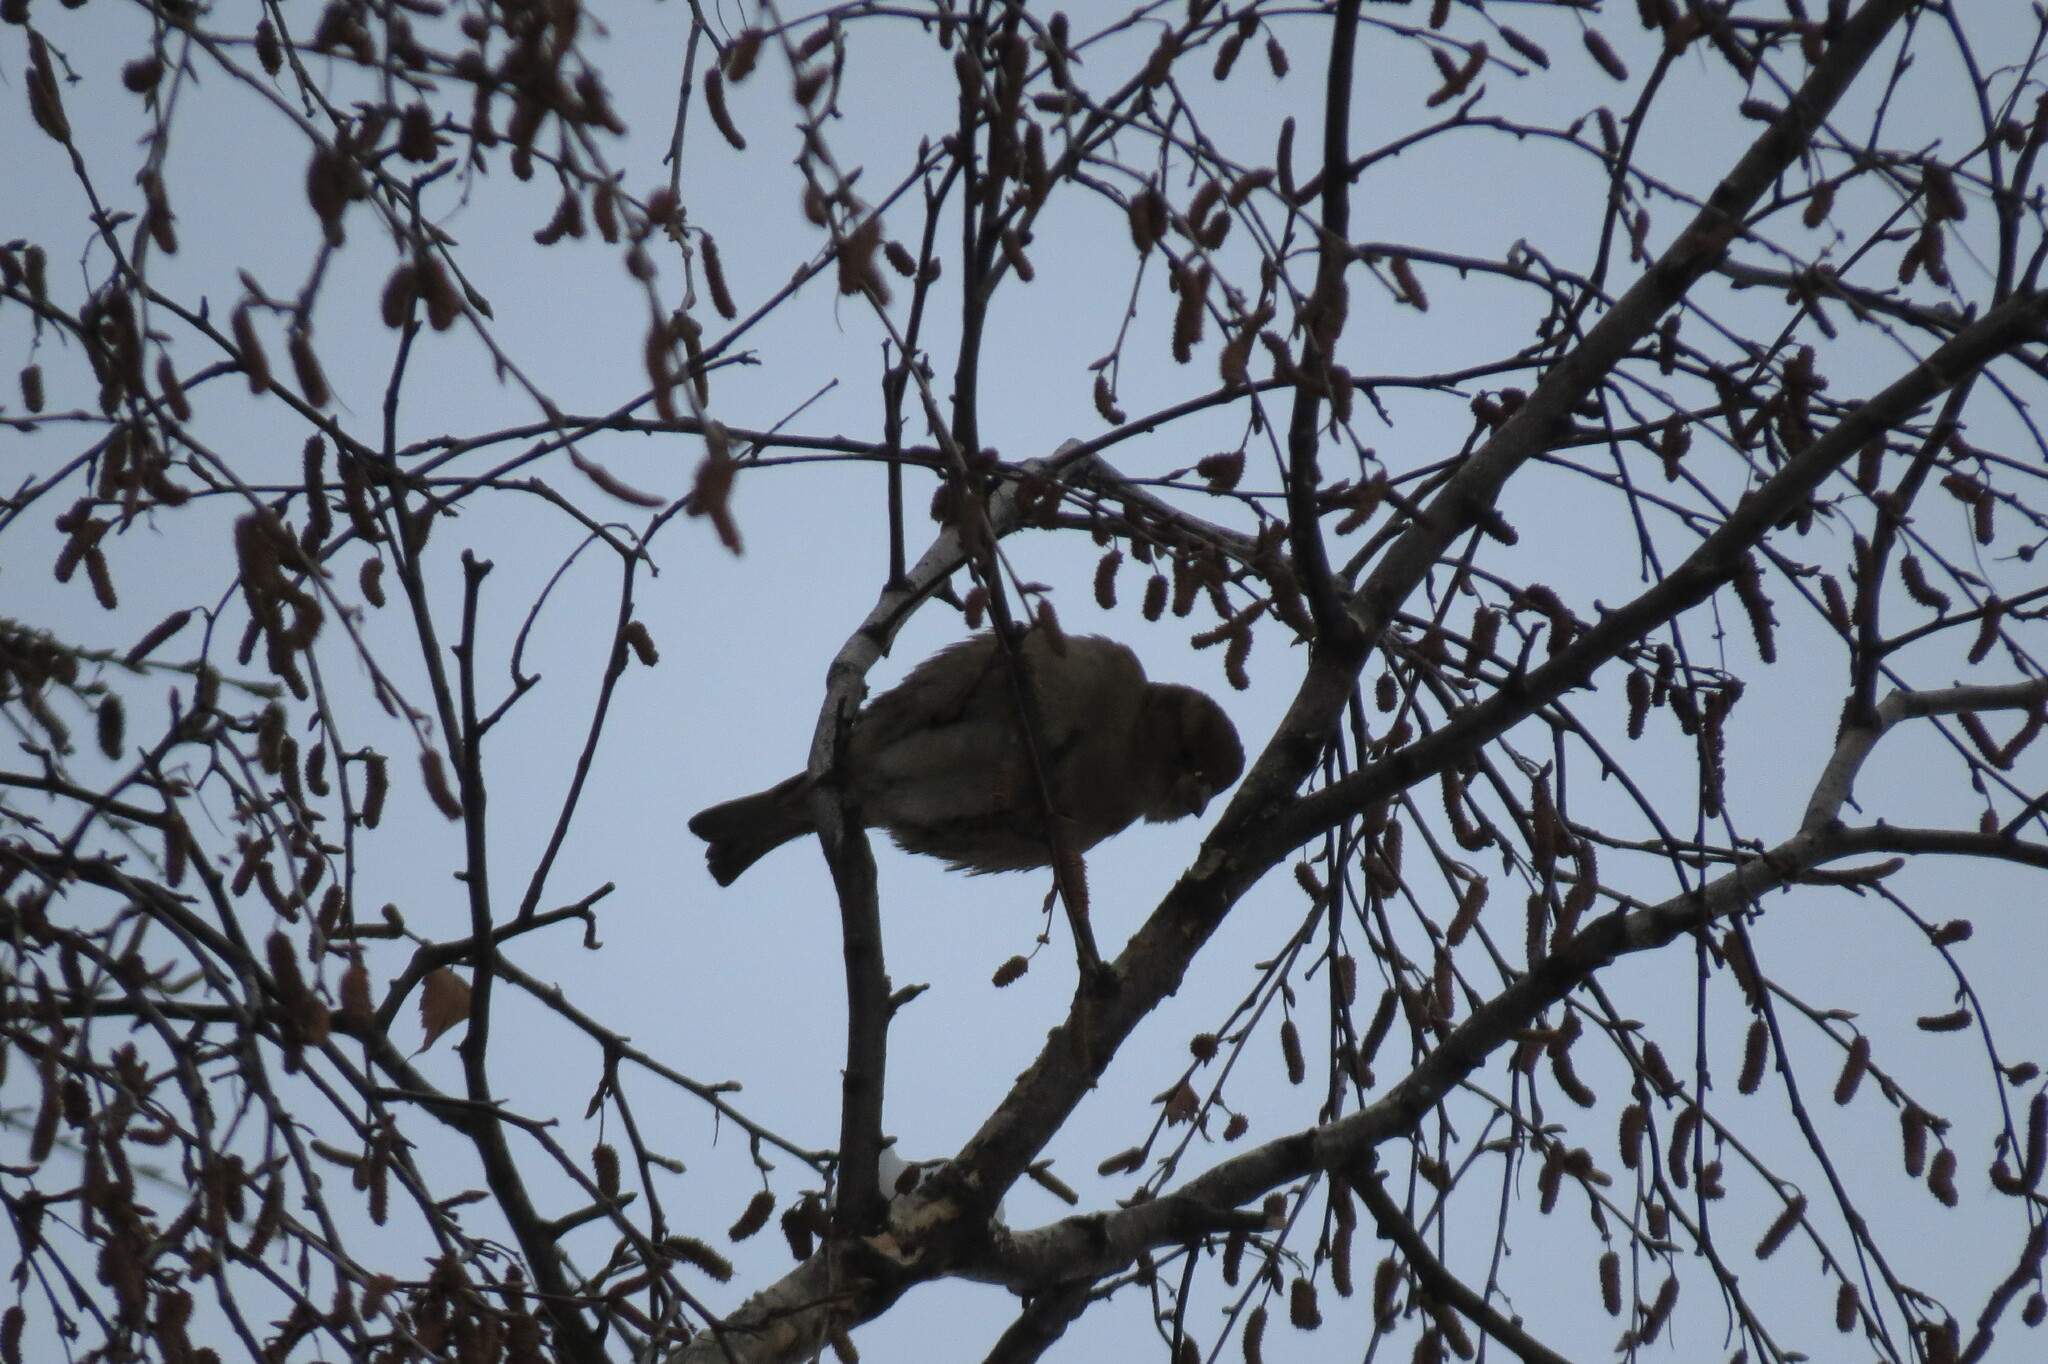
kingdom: Animalia
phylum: Chordata
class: Aves
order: Passeriformes
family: Passeridae
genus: Passer
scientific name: Passer domesticus
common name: House sparrow
